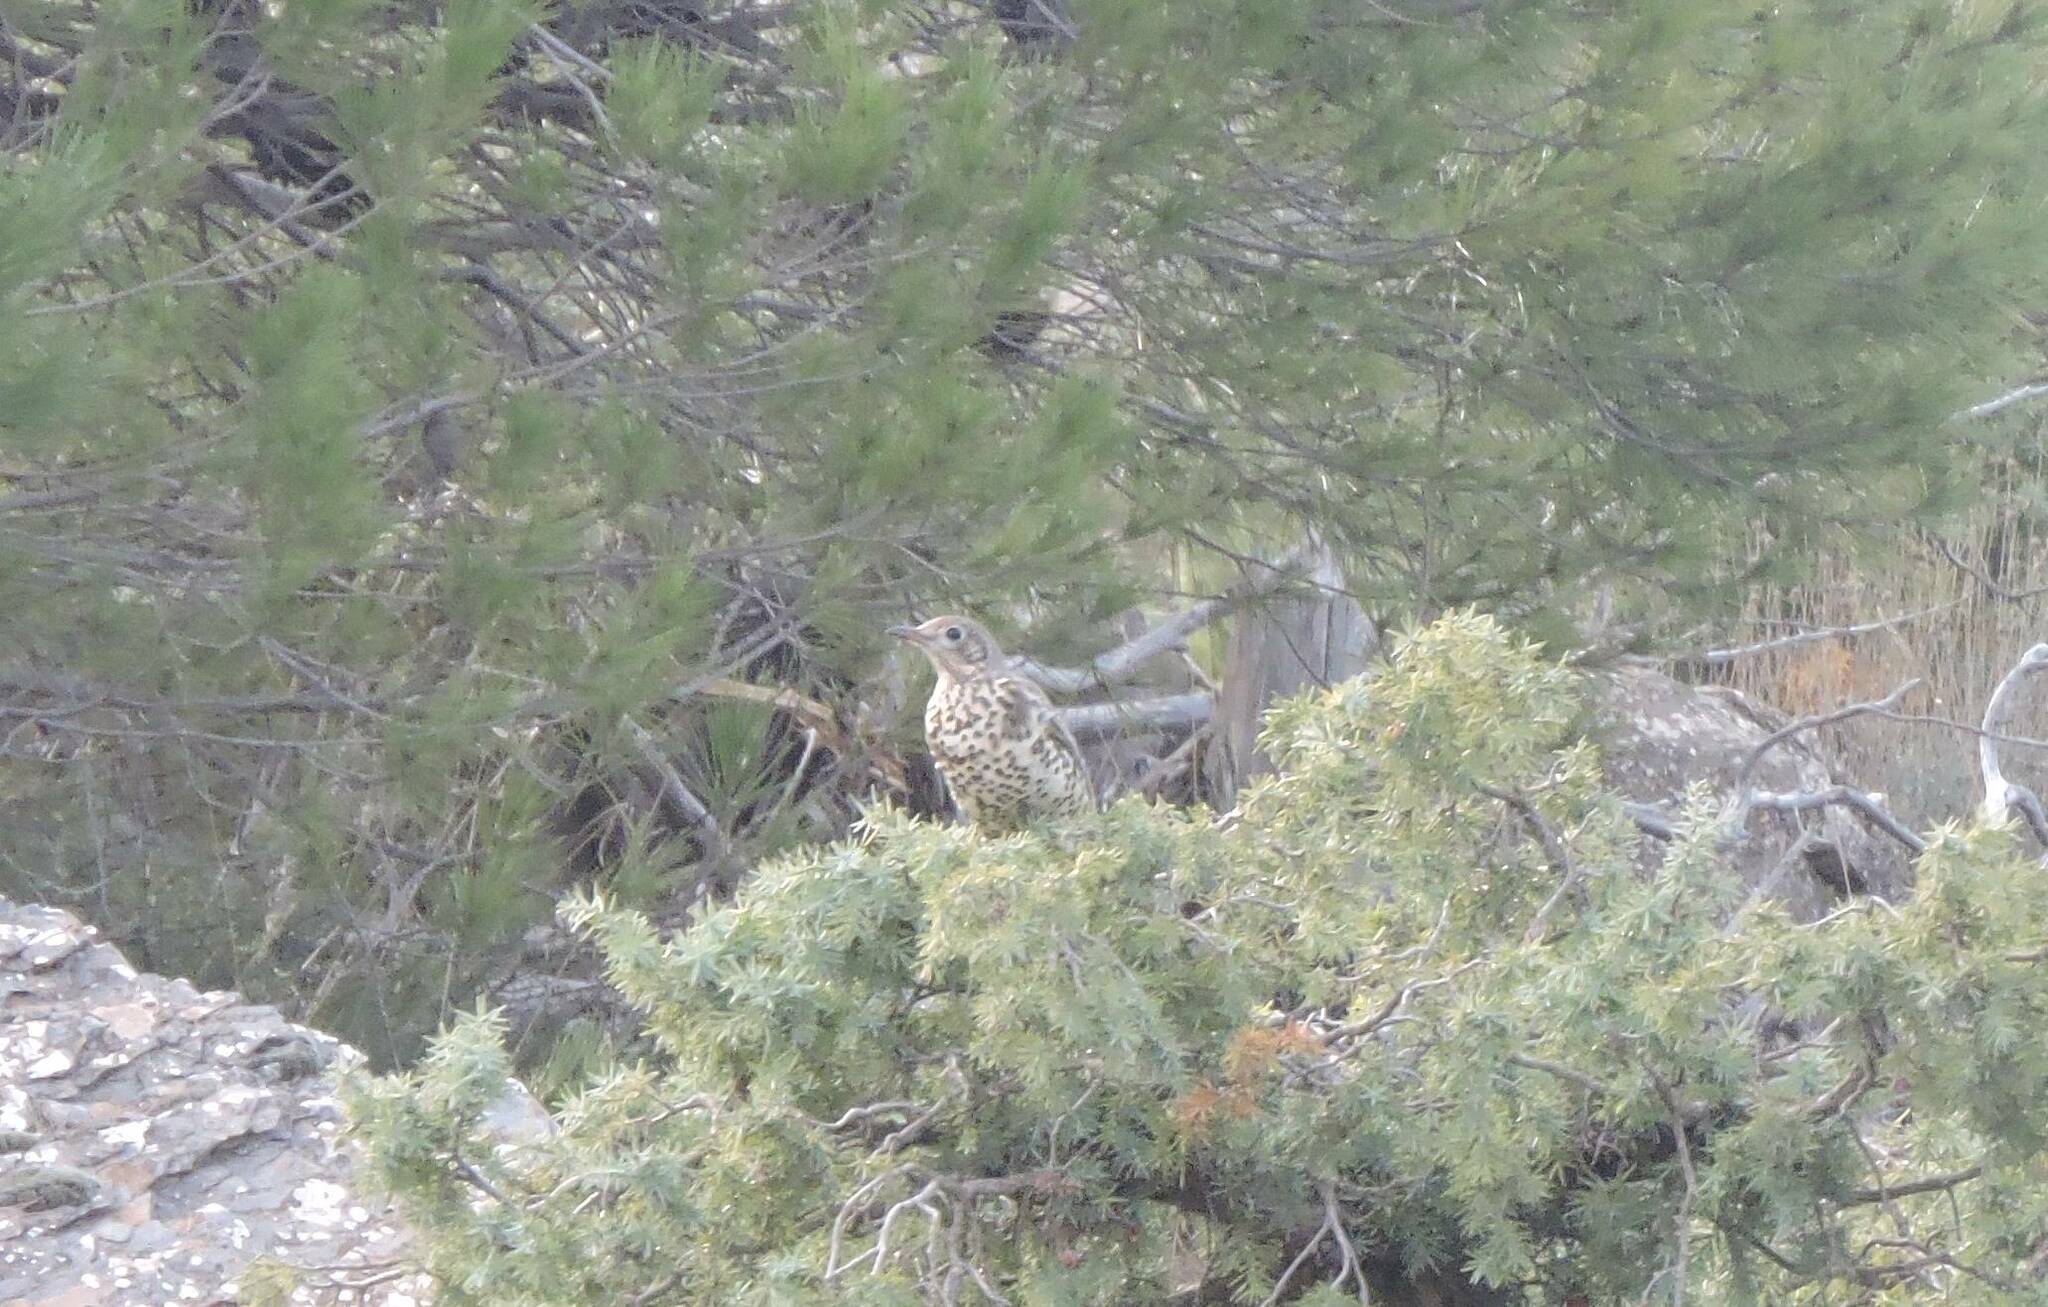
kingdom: Animalia
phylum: Chordata
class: Aves
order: Passeriformes
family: Turdidae
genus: Turdus
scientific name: Turdus viscivorus
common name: Mistle thrush
